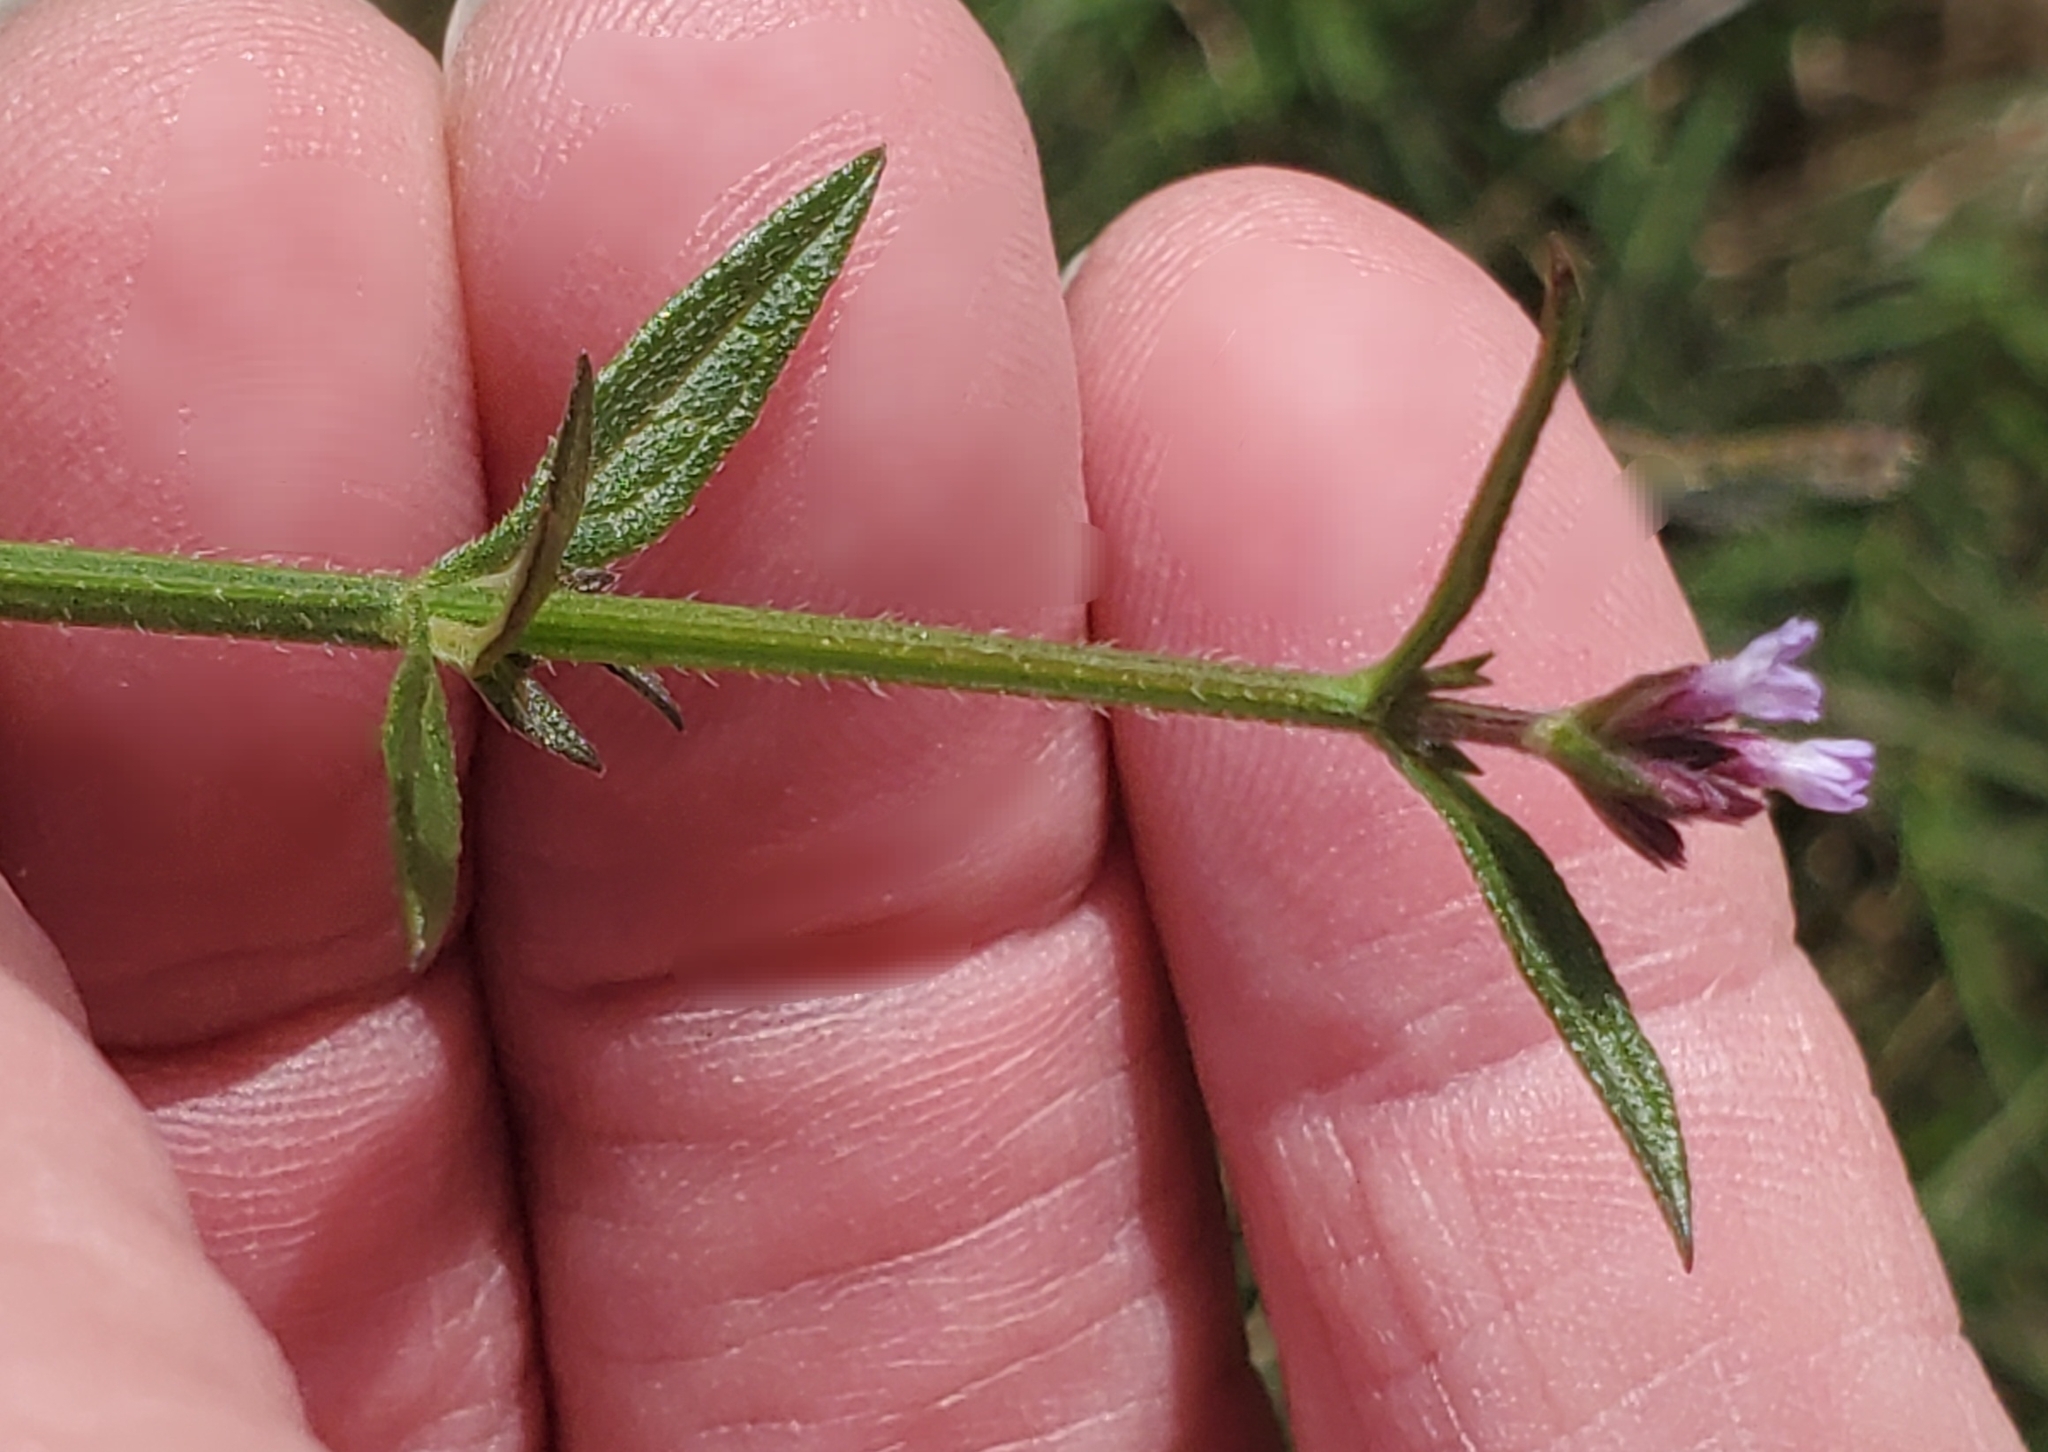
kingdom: Plantae
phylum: Tracheophyta
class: Magnoliopsida
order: Lamiales
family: Verbenaceae
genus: Verbena
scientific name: Verbena brasiliensis
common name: Brazilian vervain
